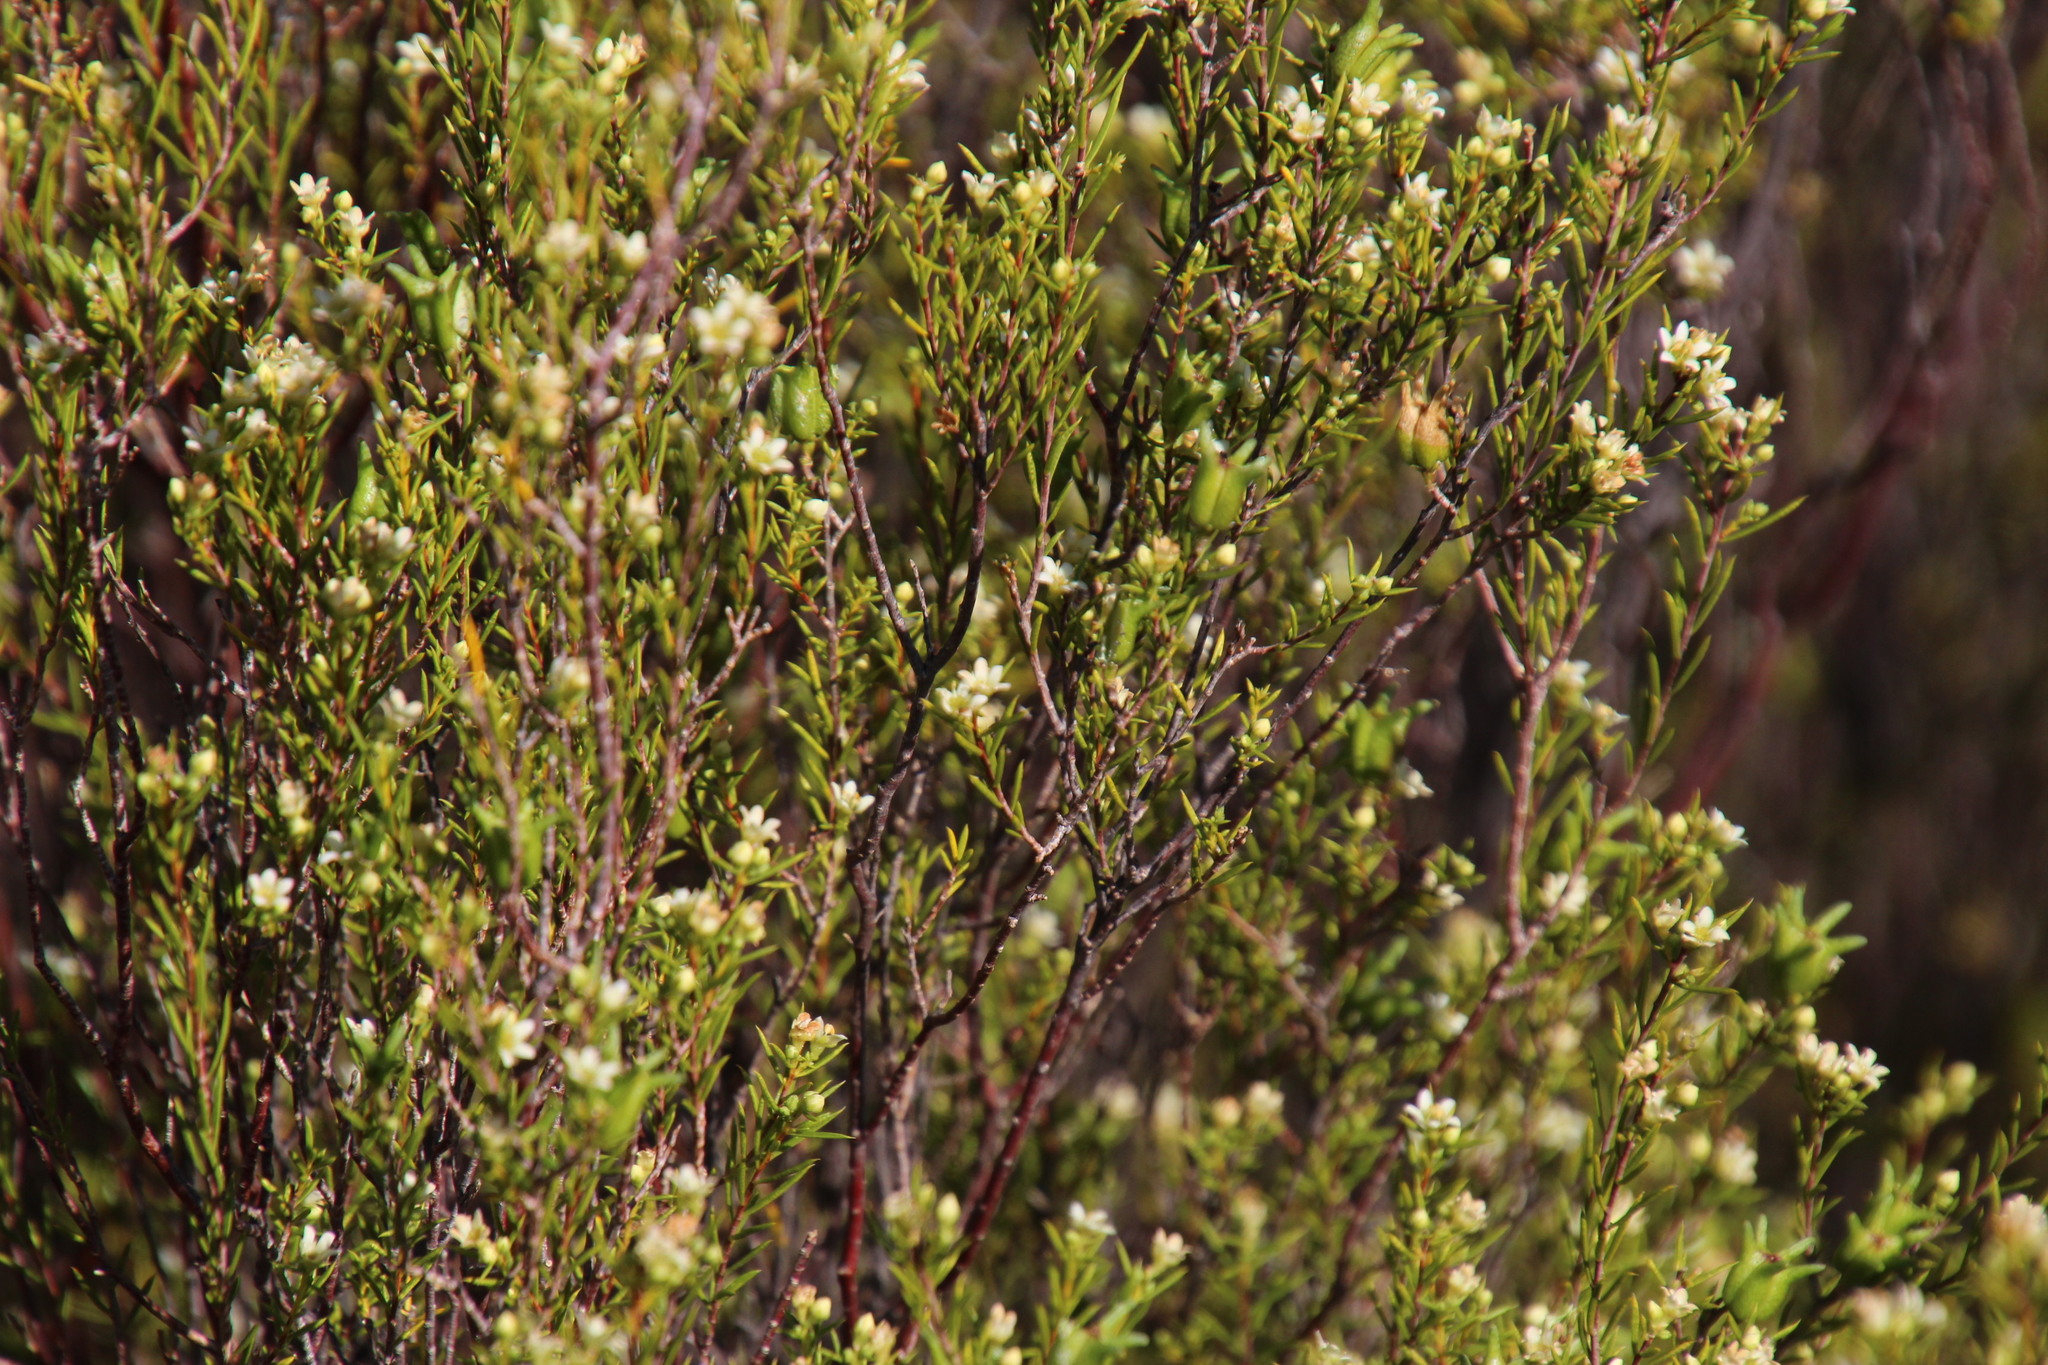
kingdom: Plantae
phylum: Tracheophyta
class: Magnoliopsida
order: Sapindales
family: Rutaceae
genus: Diosma
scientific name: Diosma acmaeophylla
